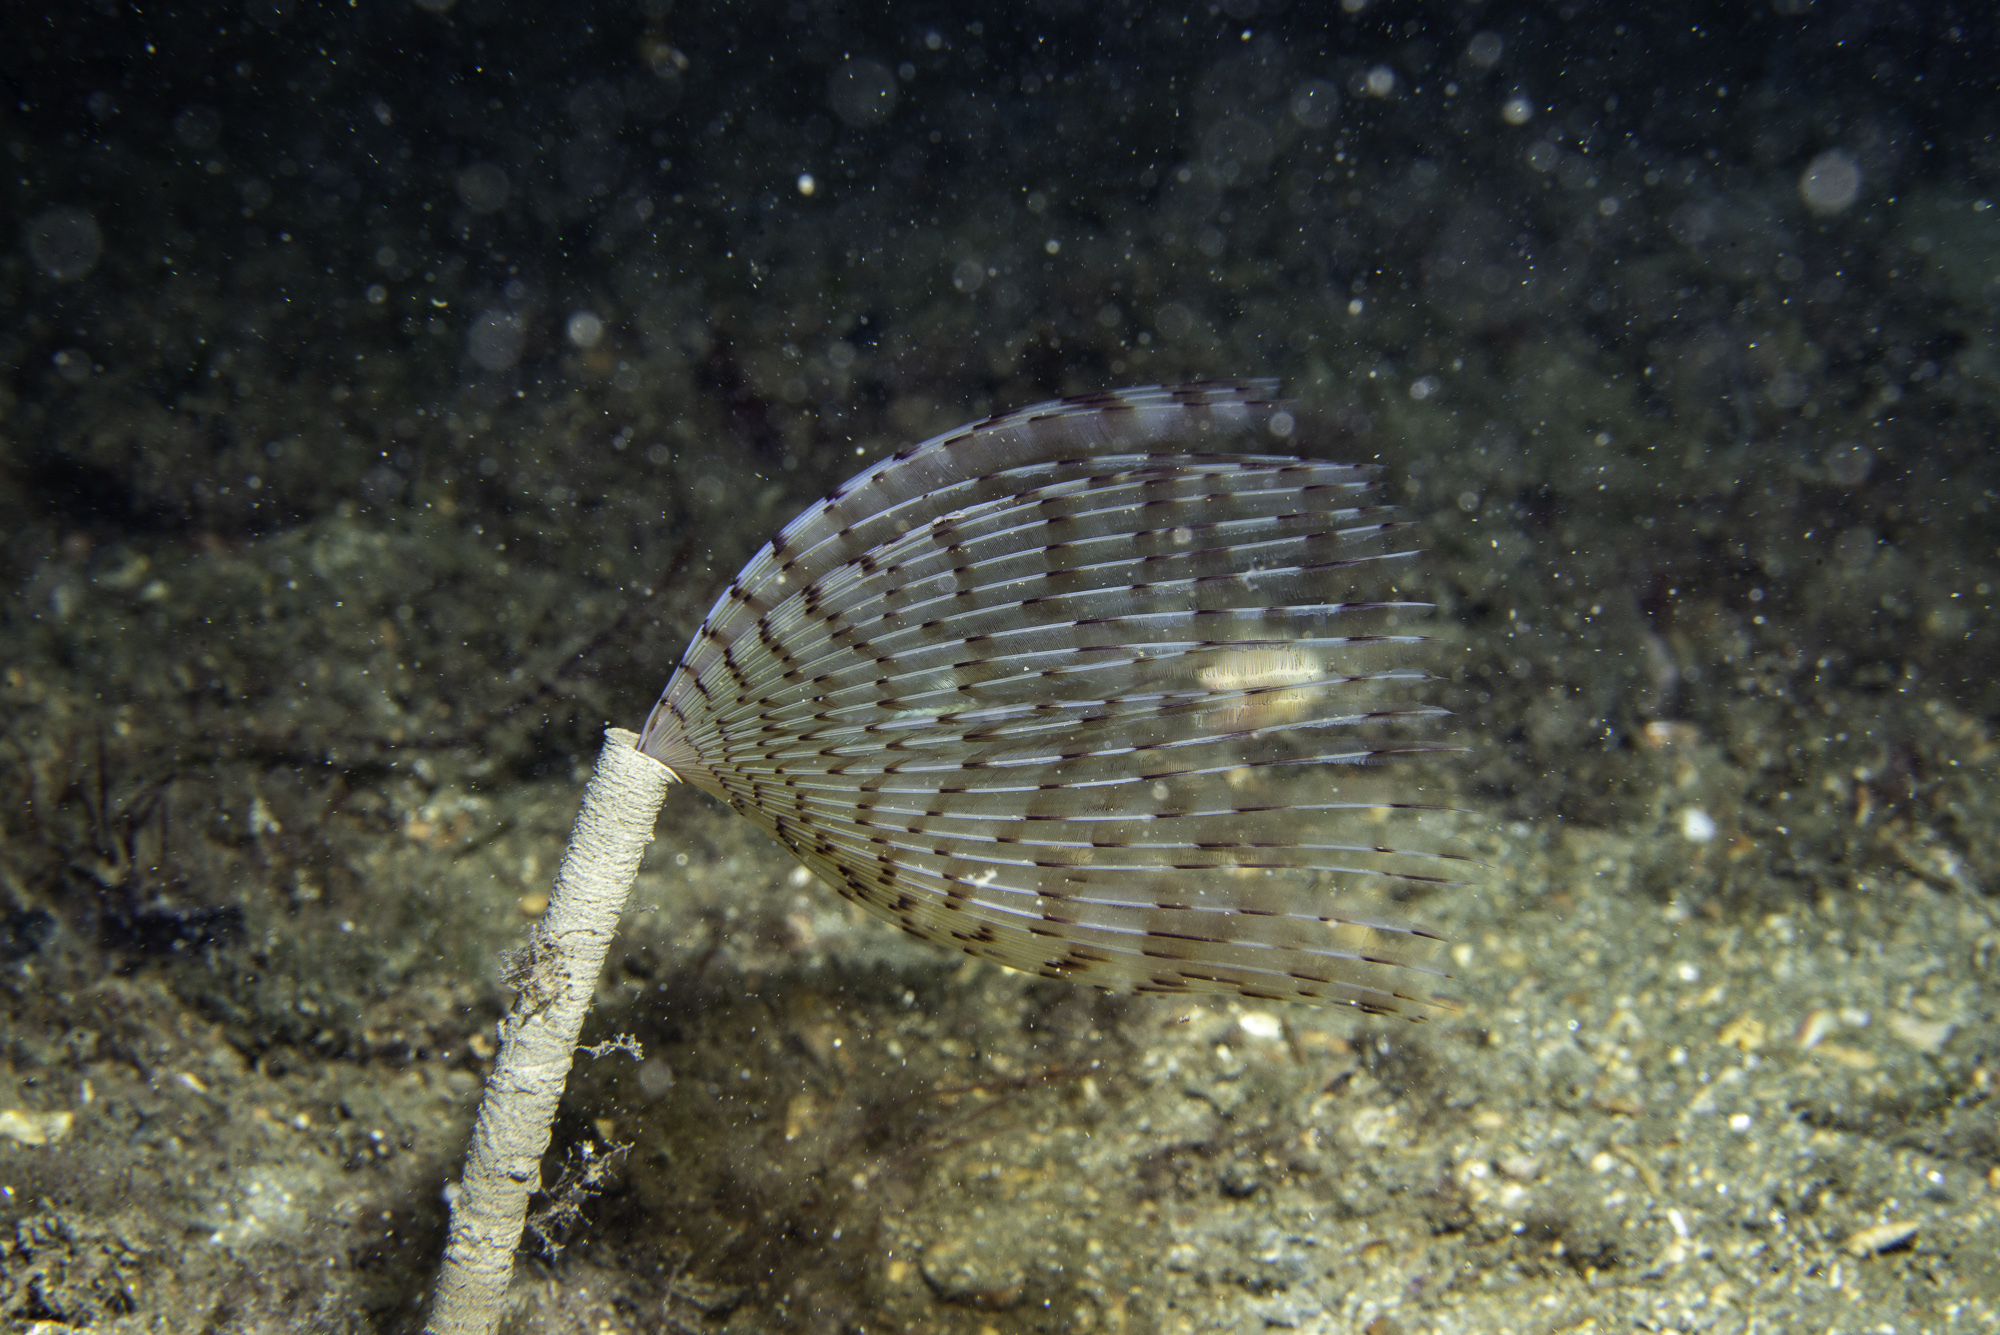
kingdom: Animalia
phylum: Annelida
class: Polychaeta
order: Sabellida
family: Sabellidae
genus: Sabella
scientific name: Sabella pavonina
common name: Peacock worm
